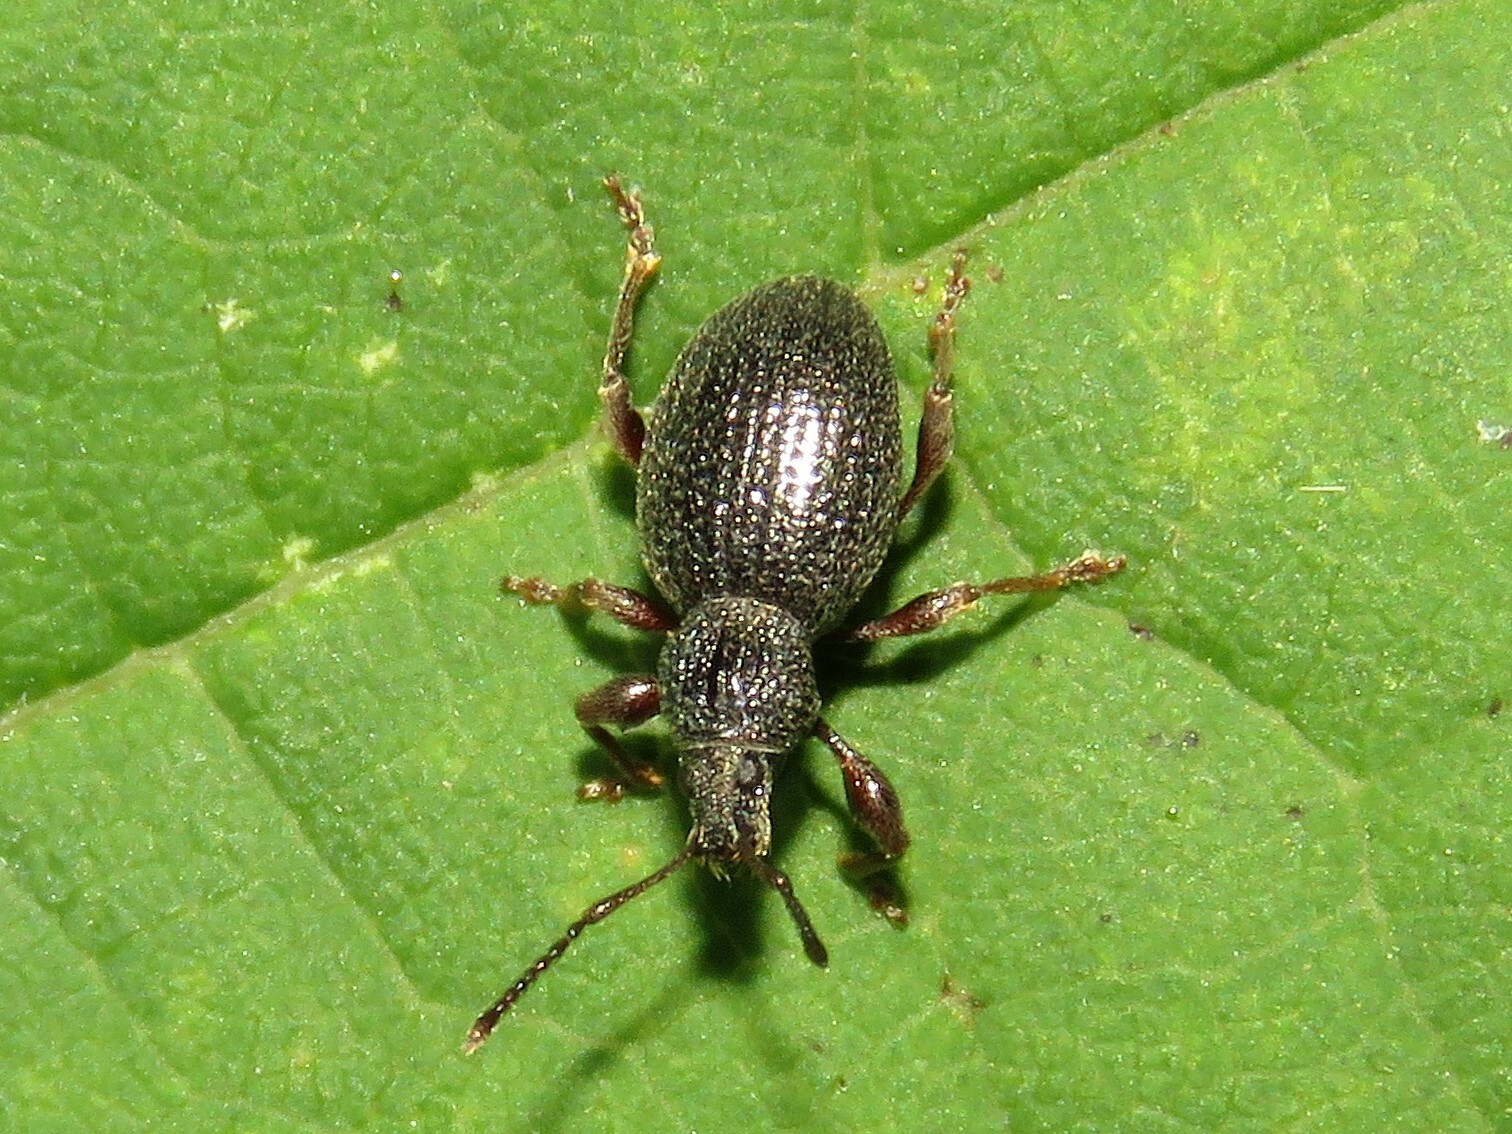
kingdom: Animalia
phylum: Arthropoda
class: Insecta
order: Coleoptera
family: Curculionidae
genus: Otiorhynchus
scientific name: Otiorhynchus ovatus
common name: Strawberry root weevil
